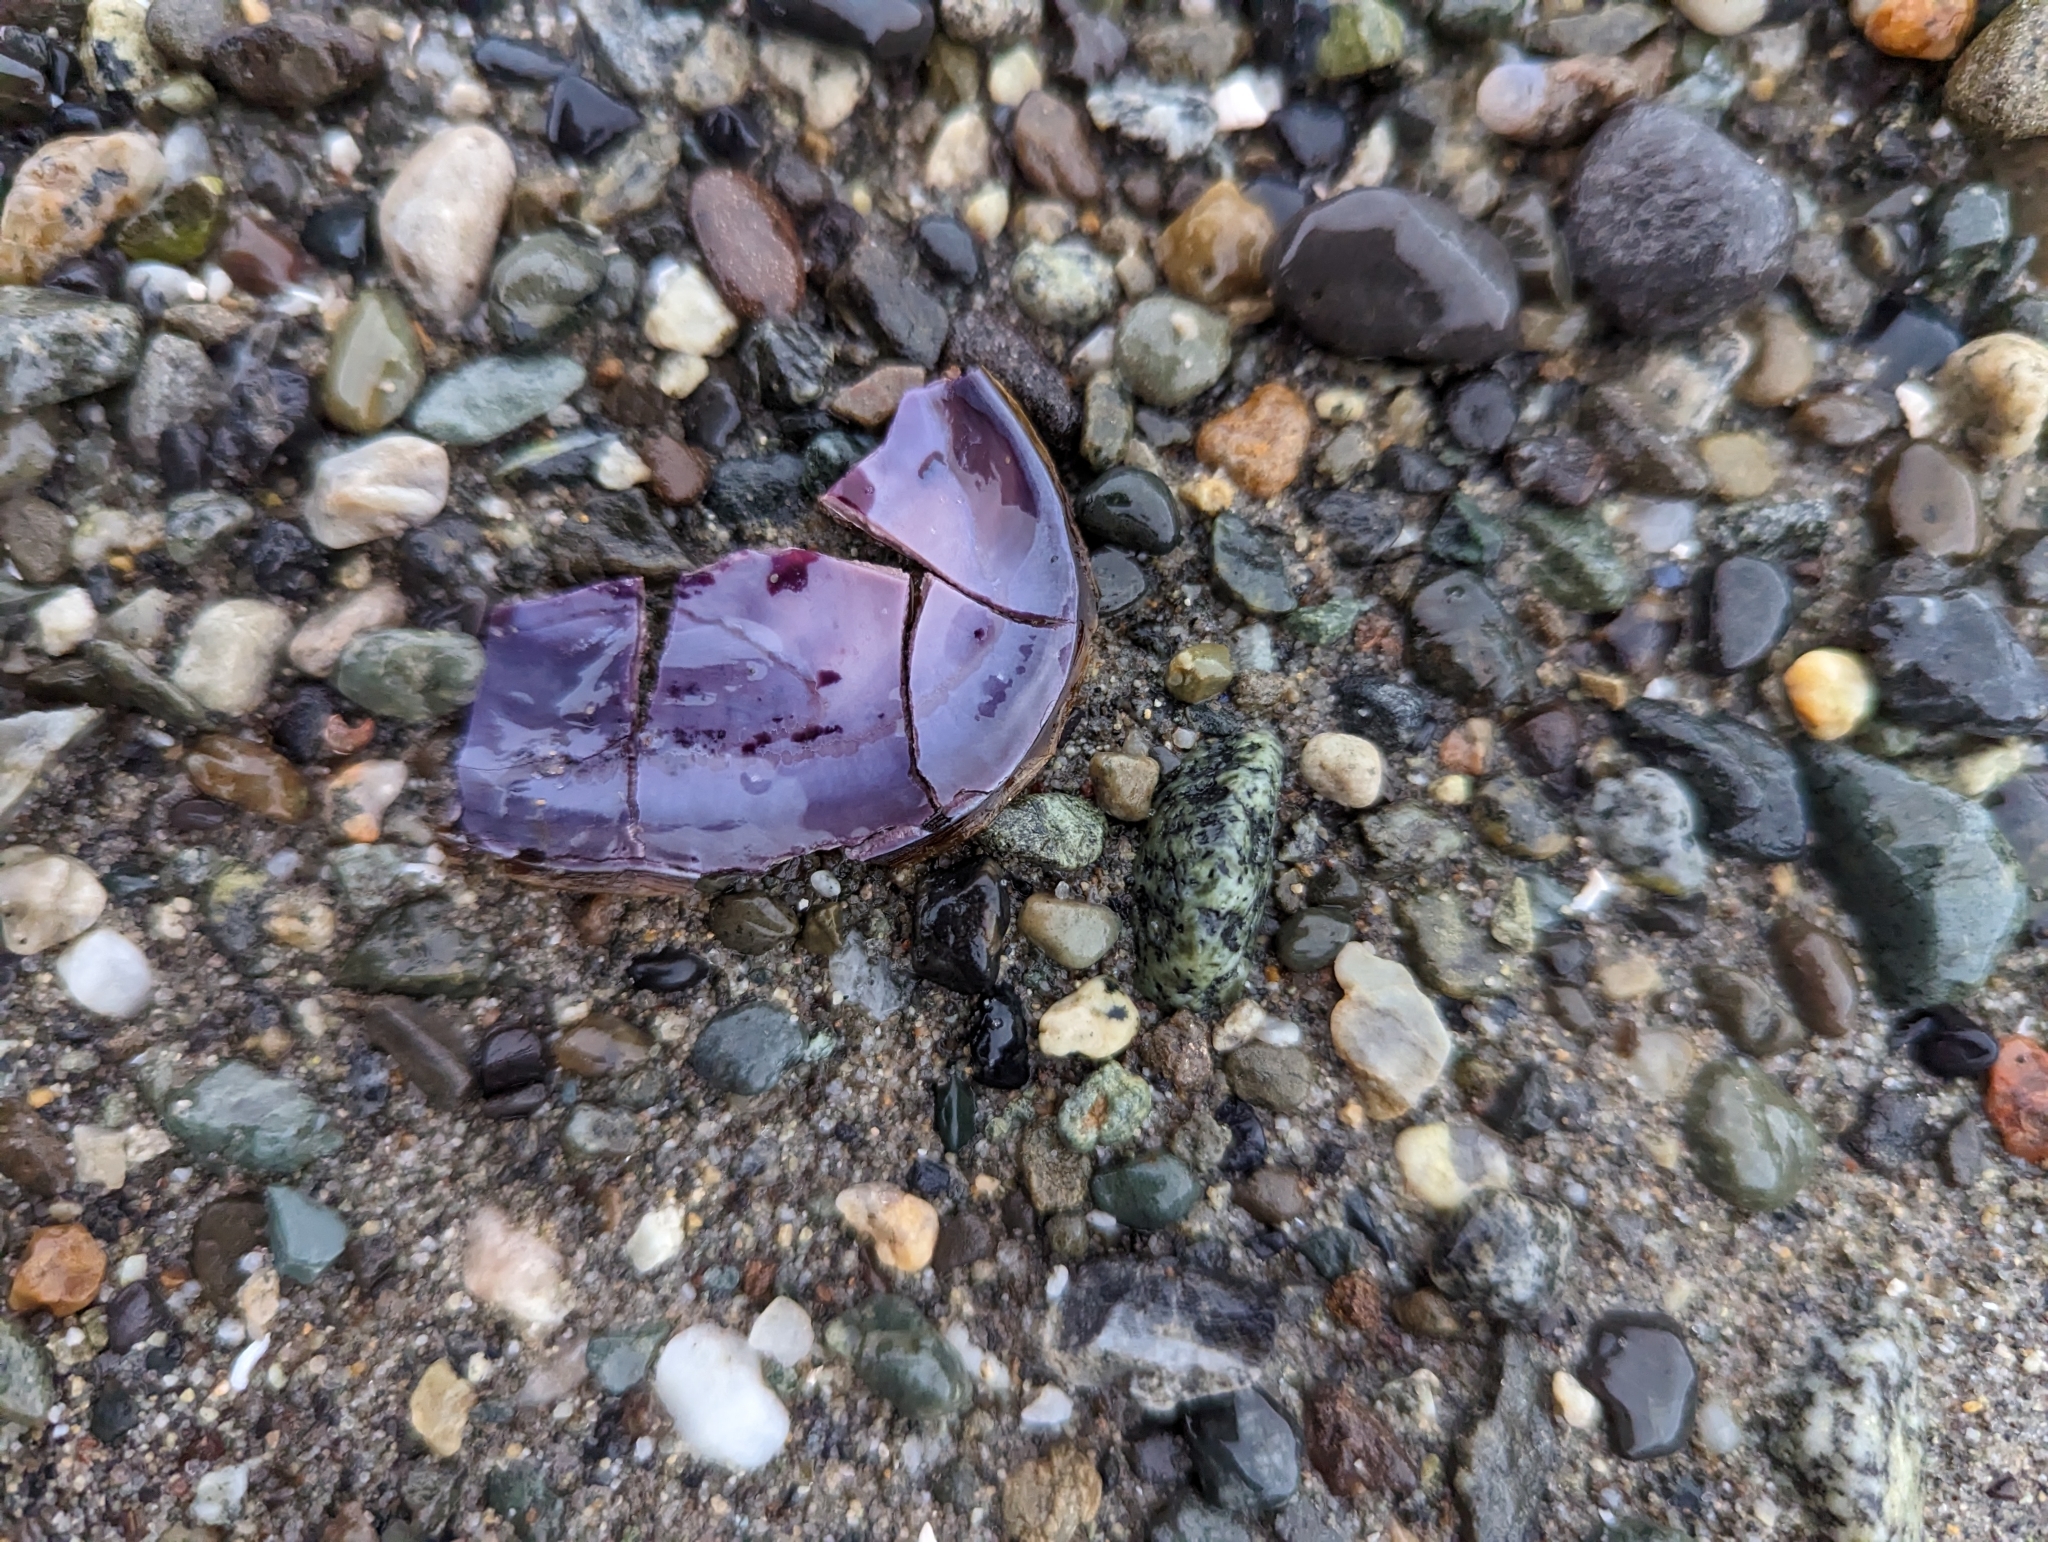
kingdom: Animalia
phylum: Mollusca
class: Bivalvia
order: Cardiida
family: Psammobiidae
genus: Nuttallia
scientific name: Nuttallia obscurata
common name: Purple mahogany-clam
